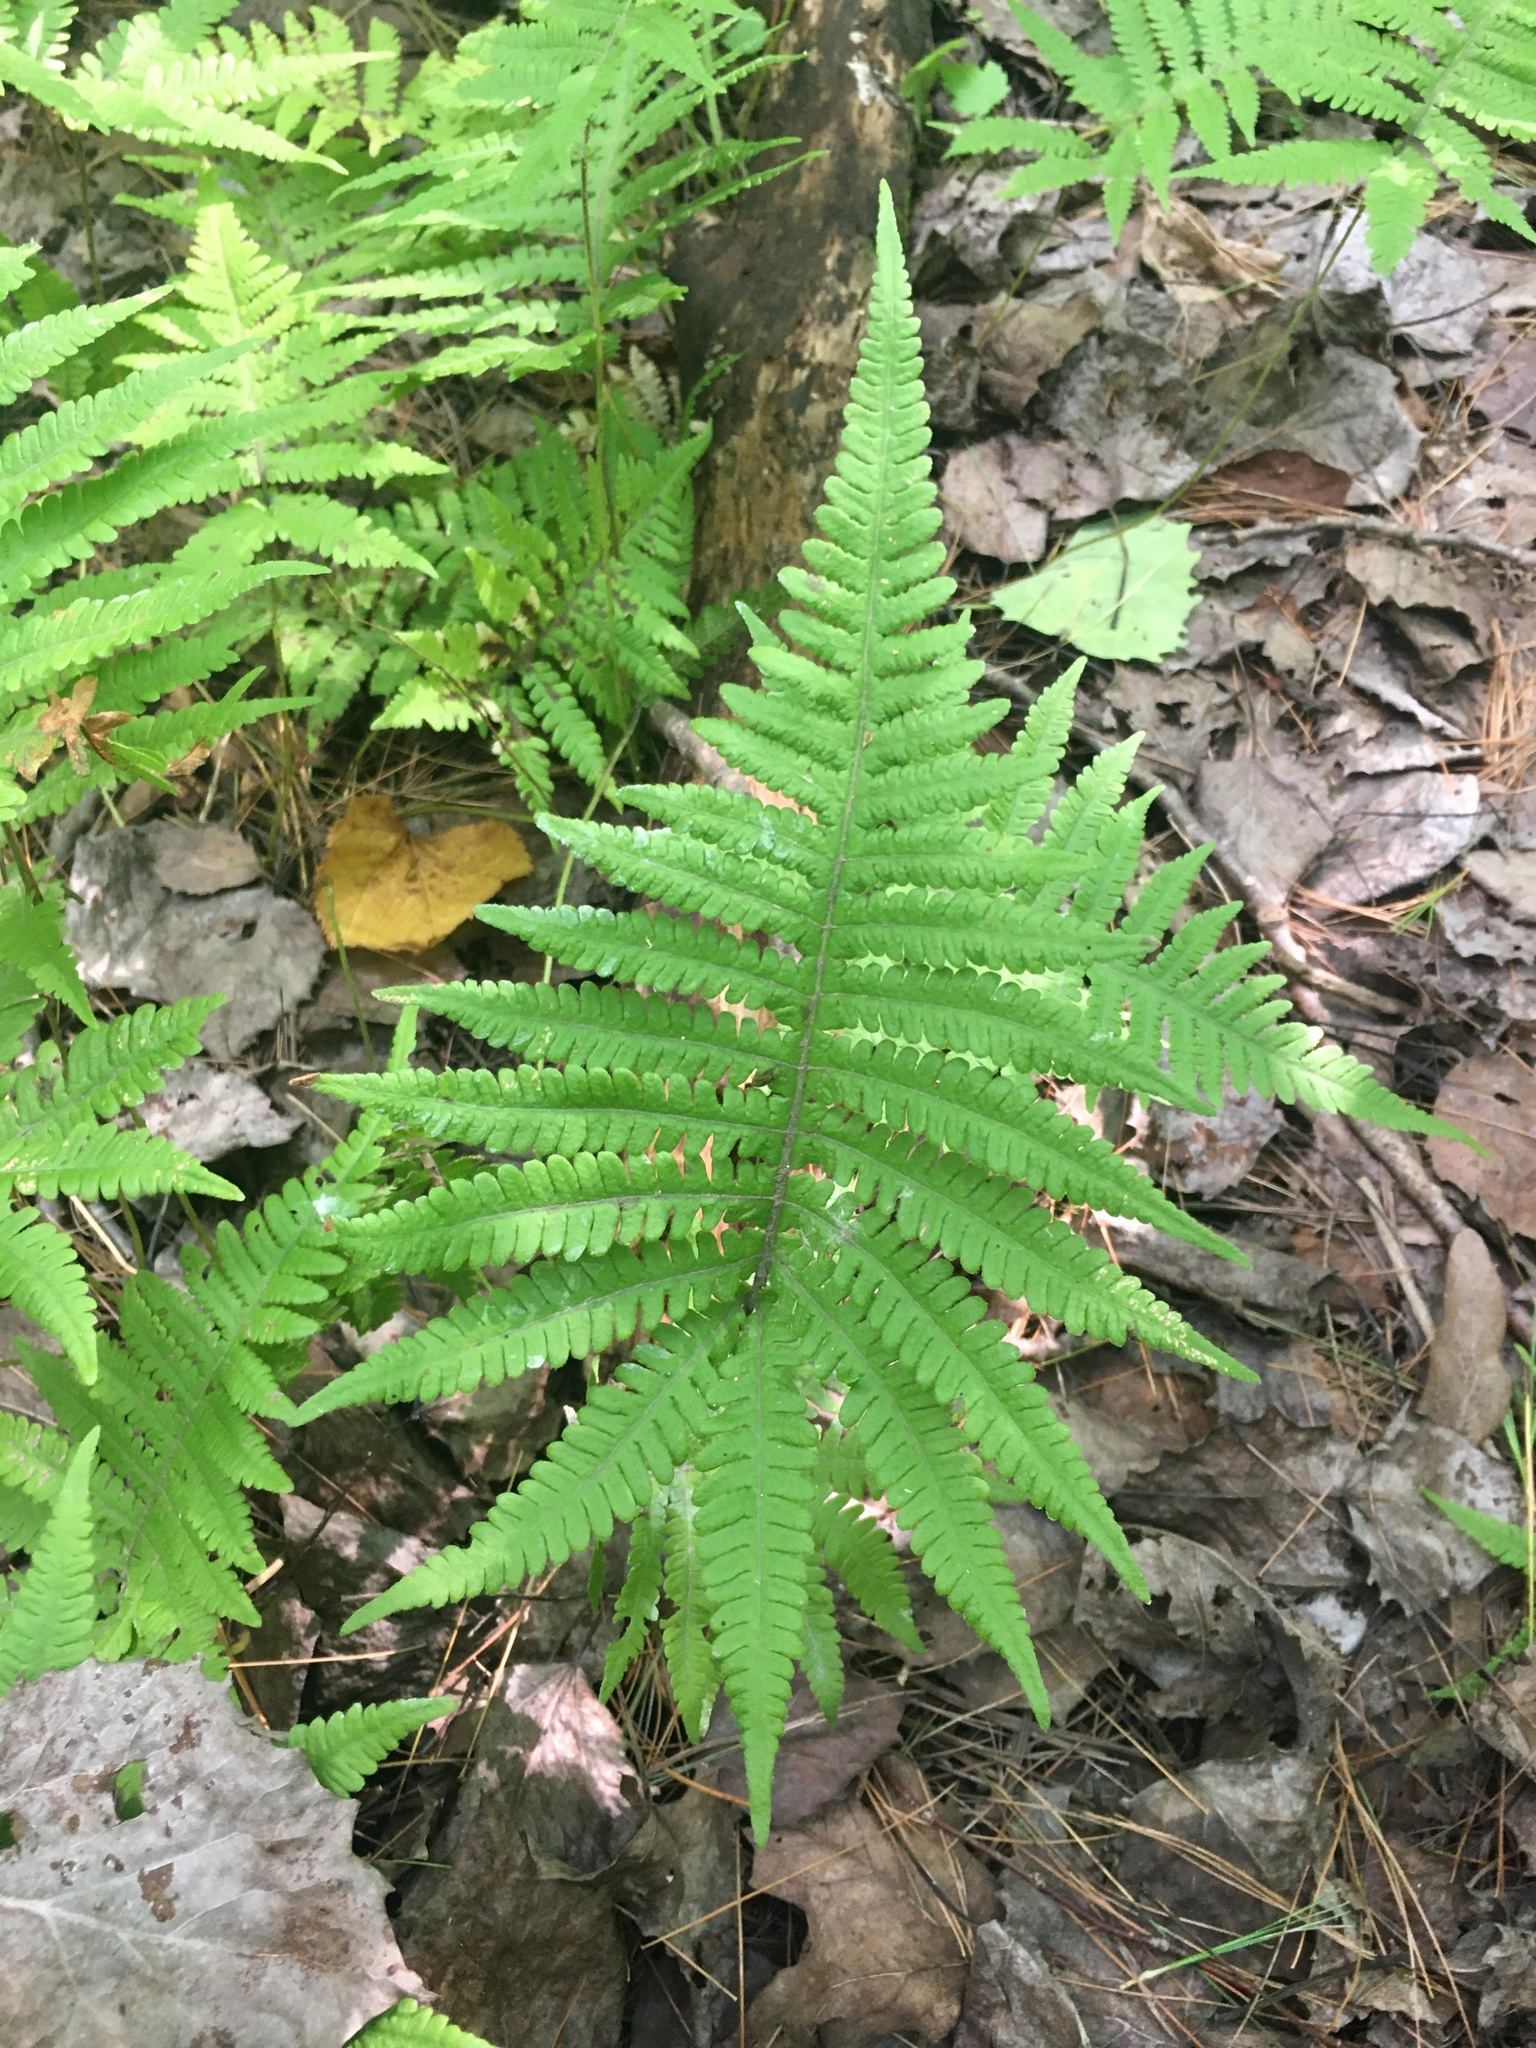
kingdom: Plantae
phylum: Tracheophyta
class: Polypodiopsida
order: Polypodiales
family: Thelypteridaceae
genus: Phegopteris
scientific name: Phegopteris connectilis
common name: Beech fern
